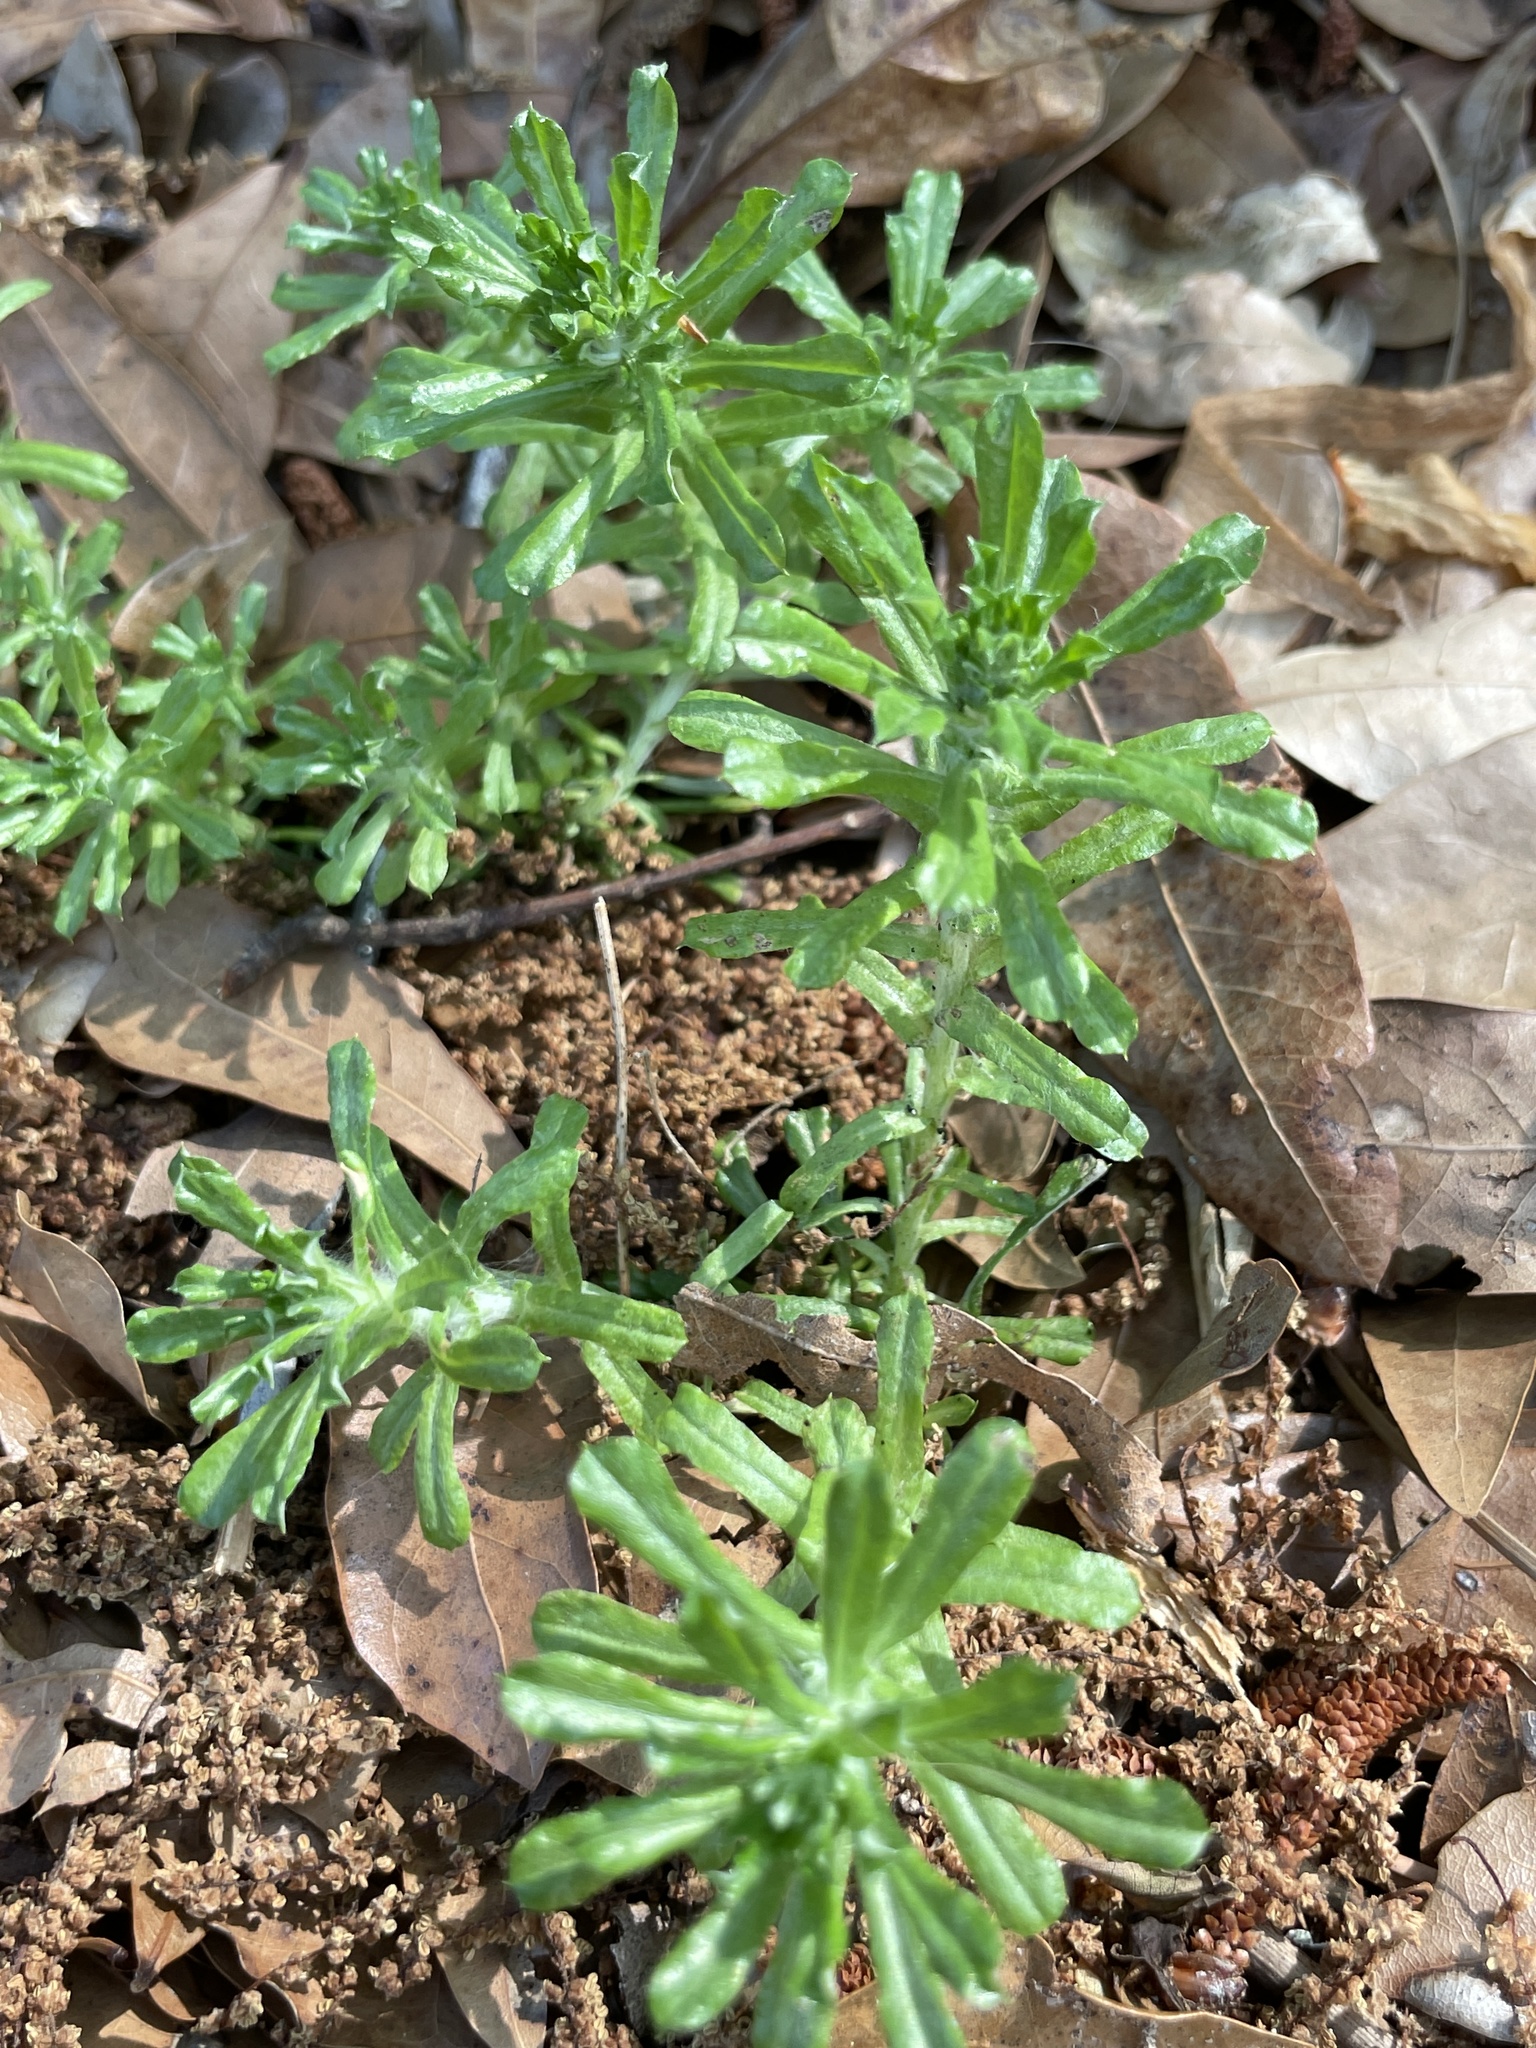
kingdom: Plantae
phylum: Tracheophyta
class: Magnoliopsida
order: Asterales
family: Asteraceae
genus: Facelis
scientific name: Facelis retusa
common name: Annual trampweed
